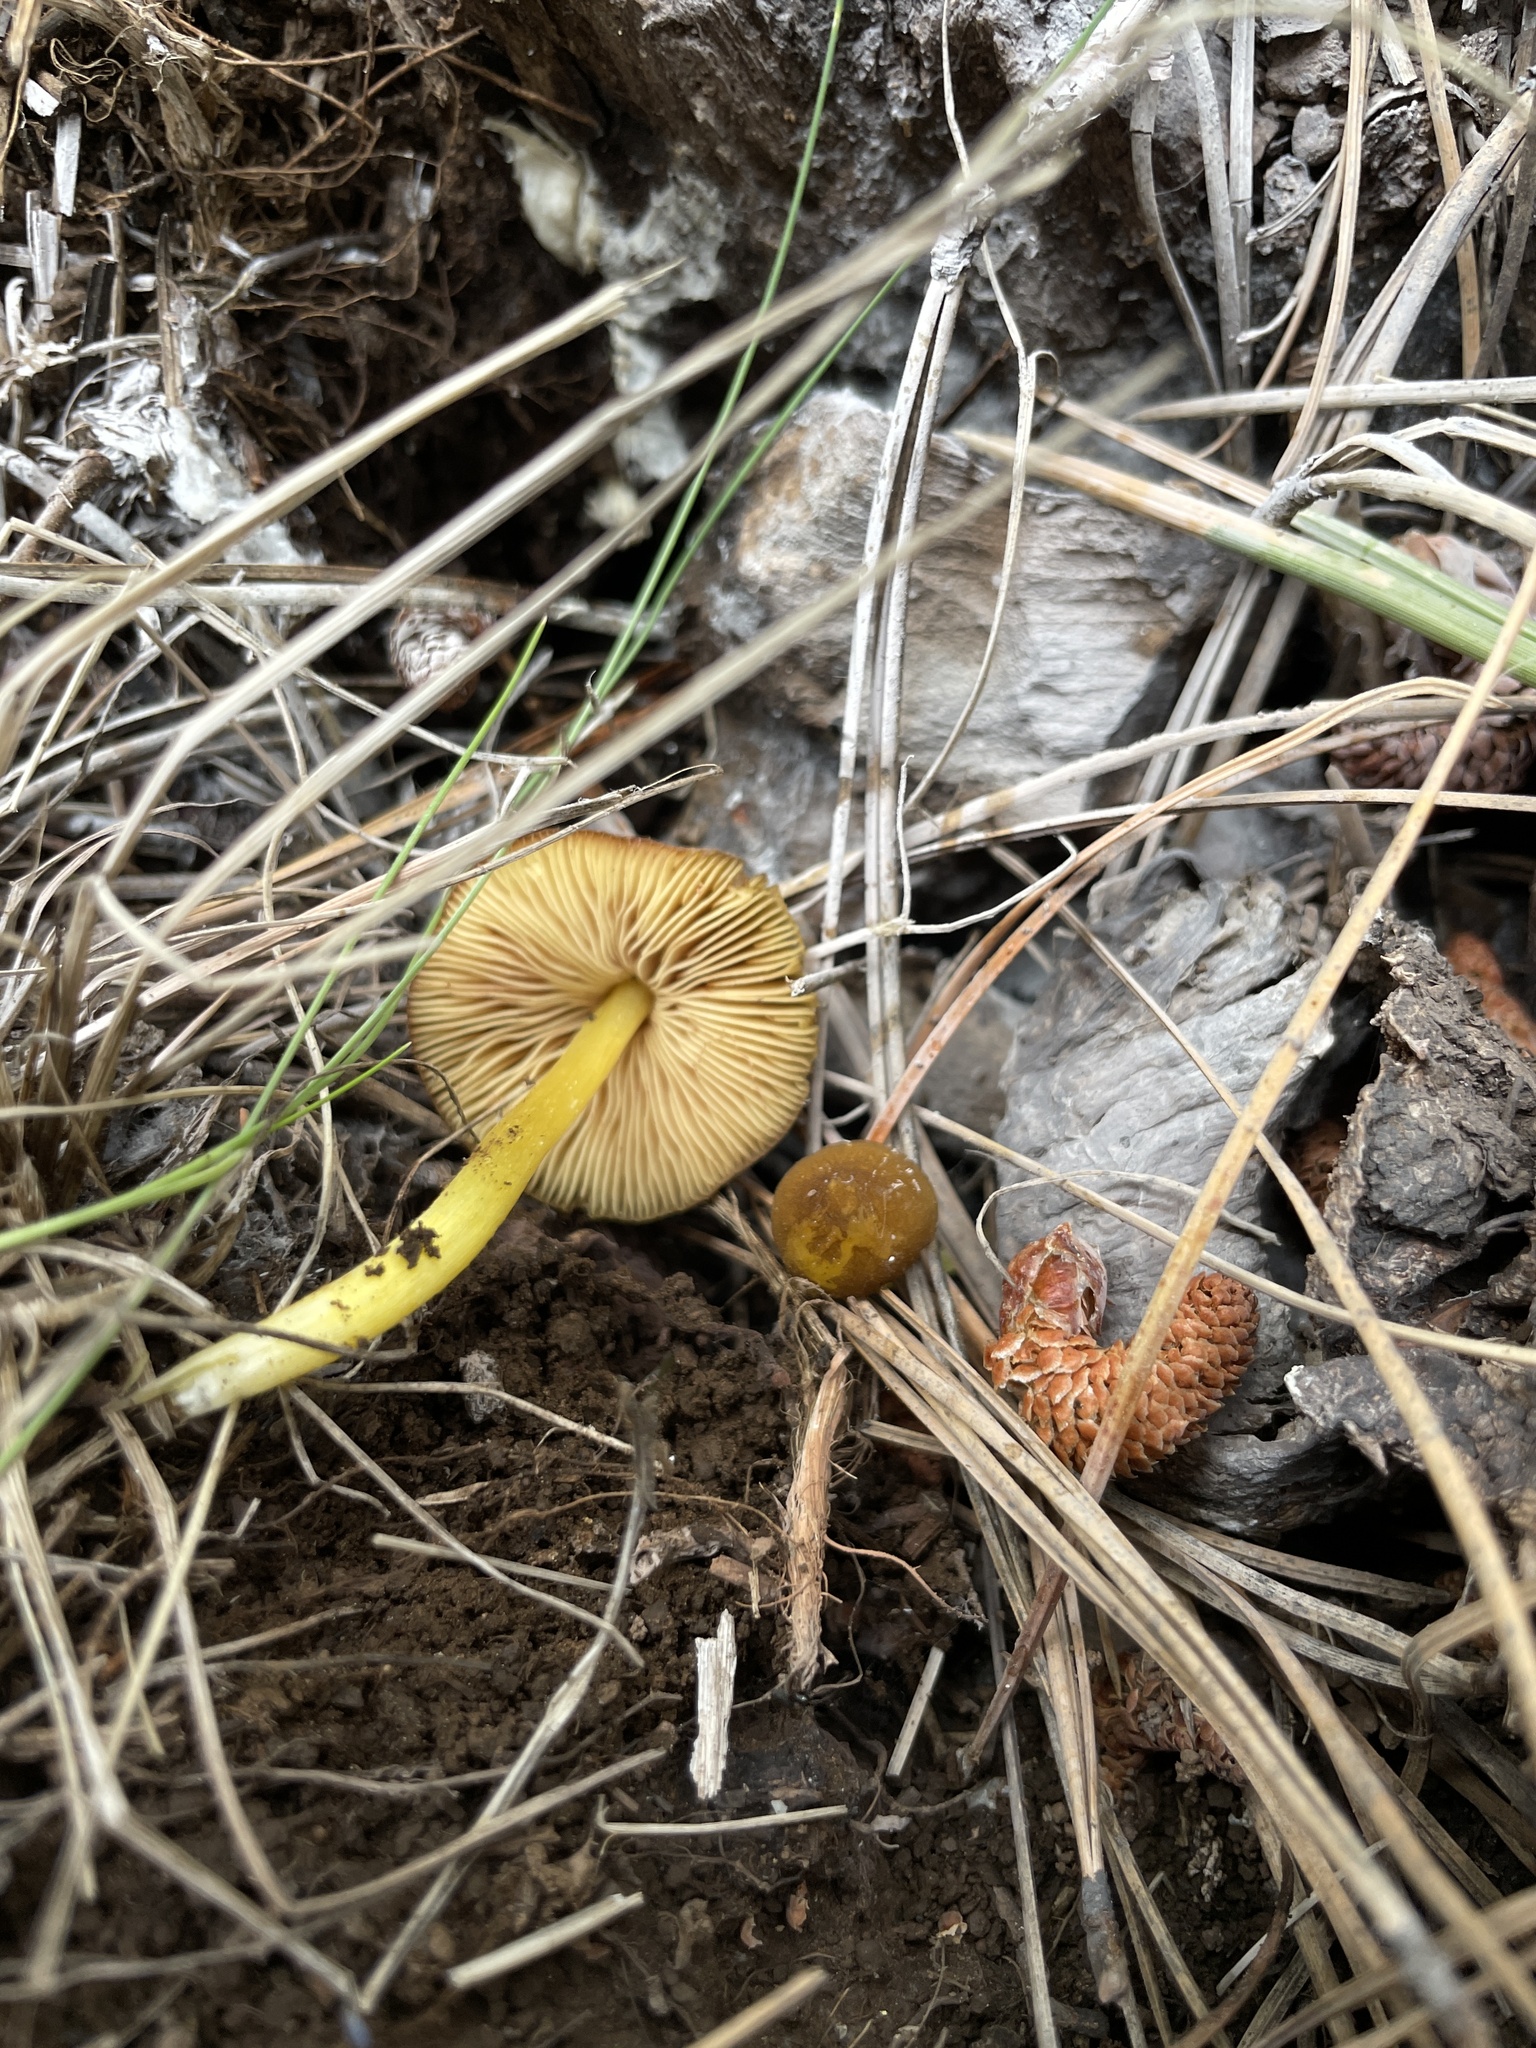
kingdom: Fungi
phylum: Basidiomycota
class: Agaricomycetes
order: Agaricales
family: Pluteaceae
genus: Pluteus
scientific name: Pluteus fulvibadius
